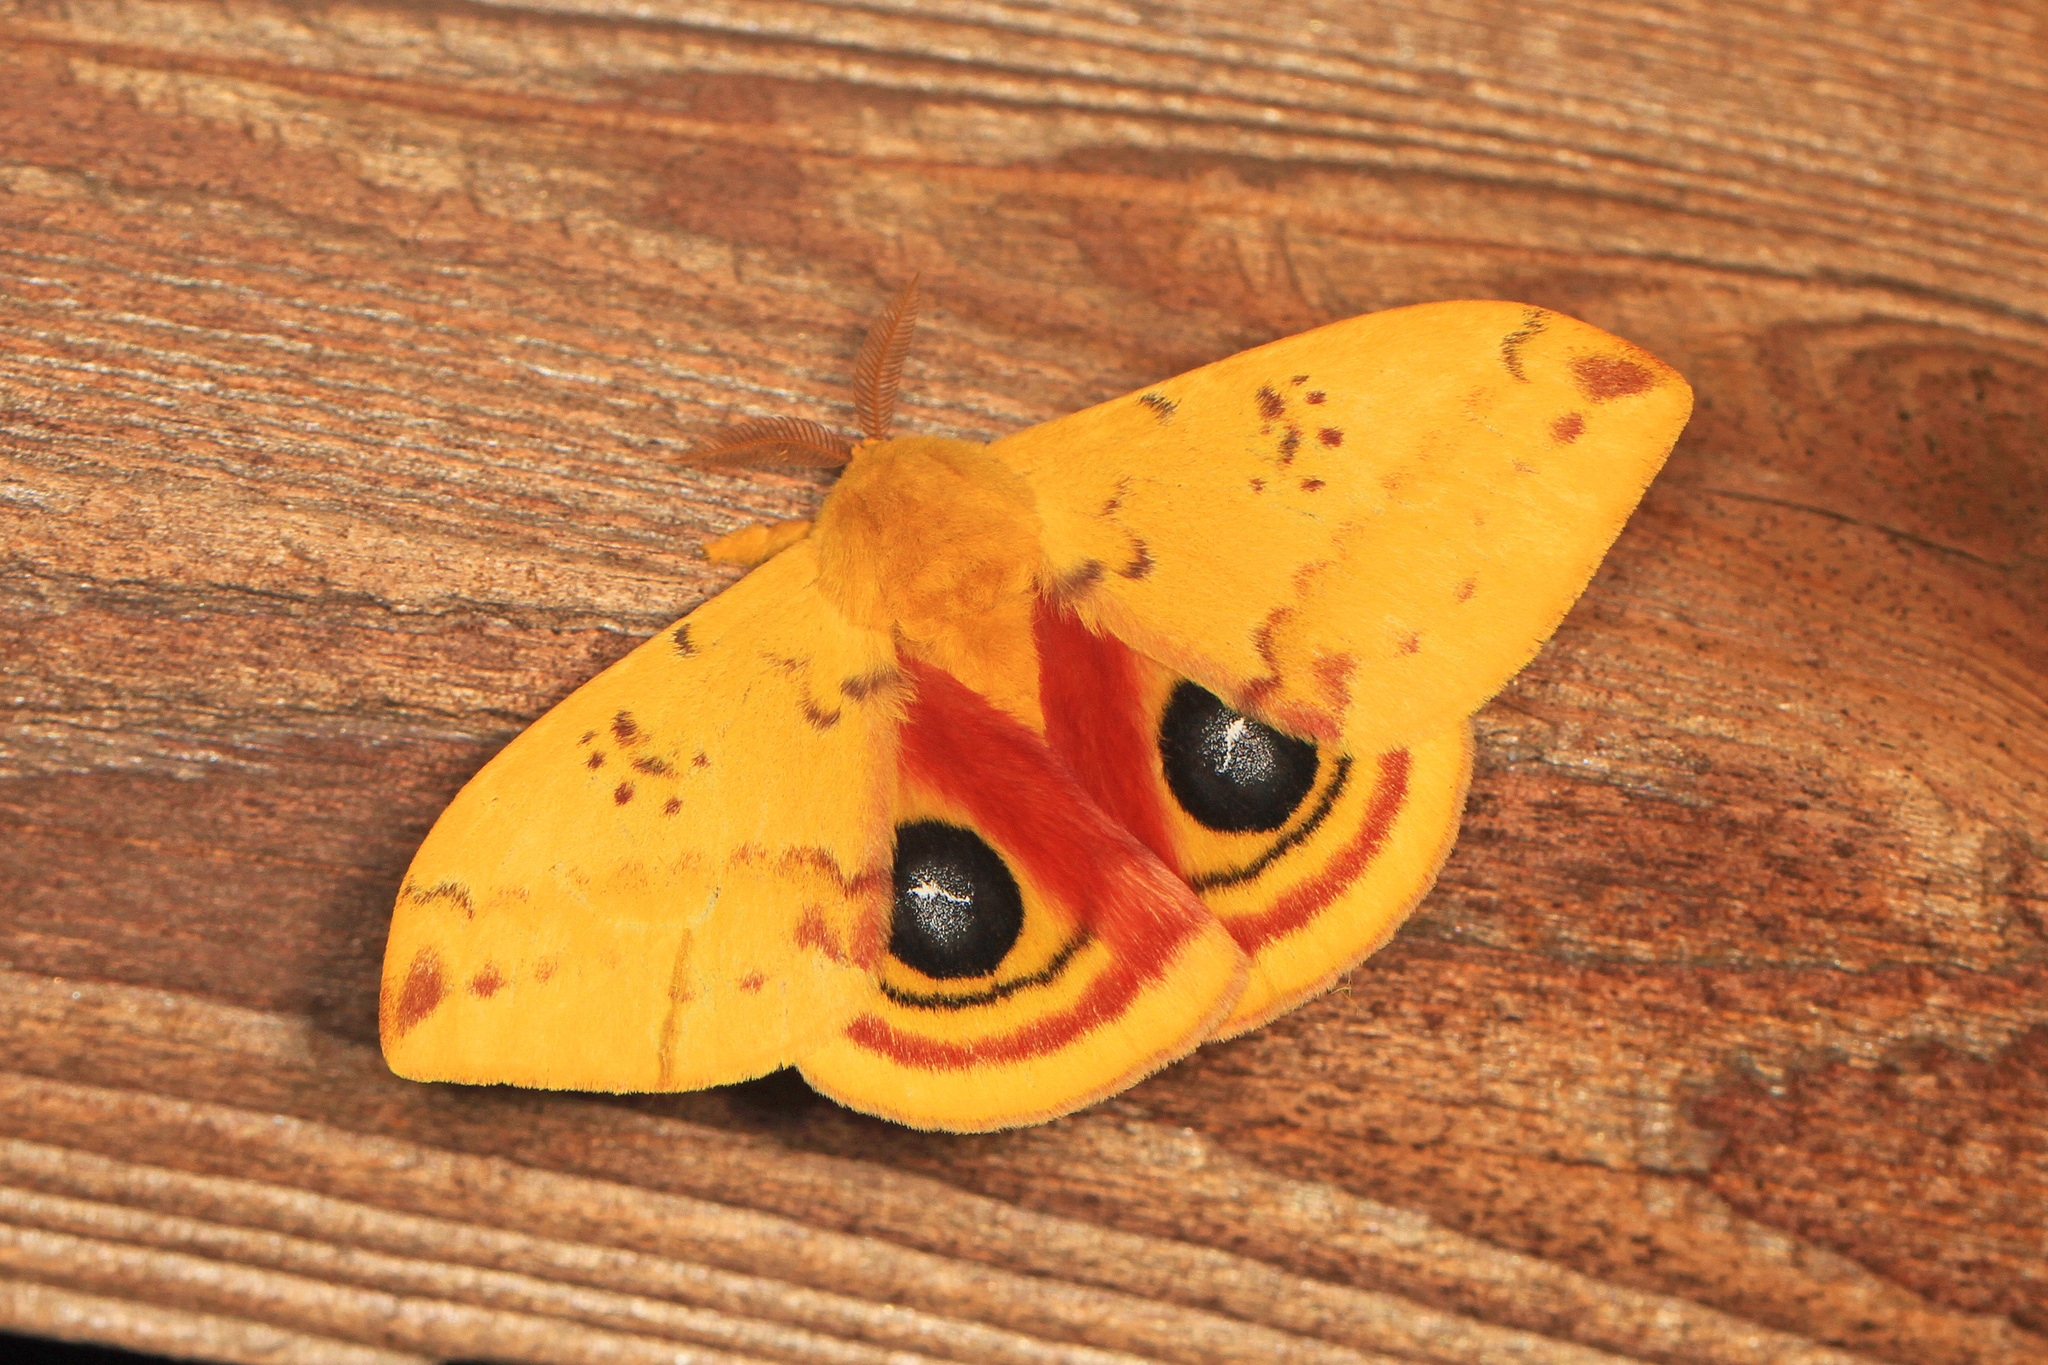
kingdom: Animalia
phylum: Arthropoda
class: Insecta
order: Lepidoptera
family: Saturniidae
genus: Automeris
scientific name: Automeris io
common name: Io moth
